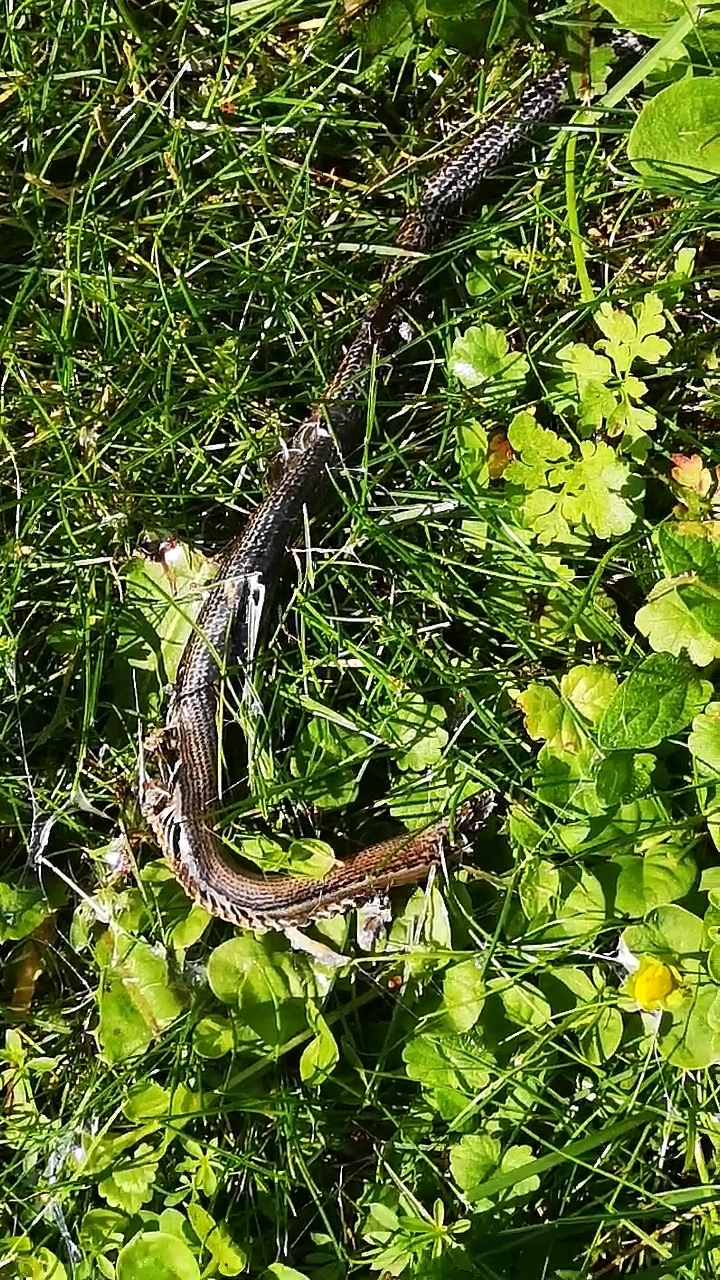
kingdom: Animalia
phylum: Chordata
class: Squamata
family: Anguidae
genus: Anguis
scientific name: Anguis fragilis
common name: Slow worm
